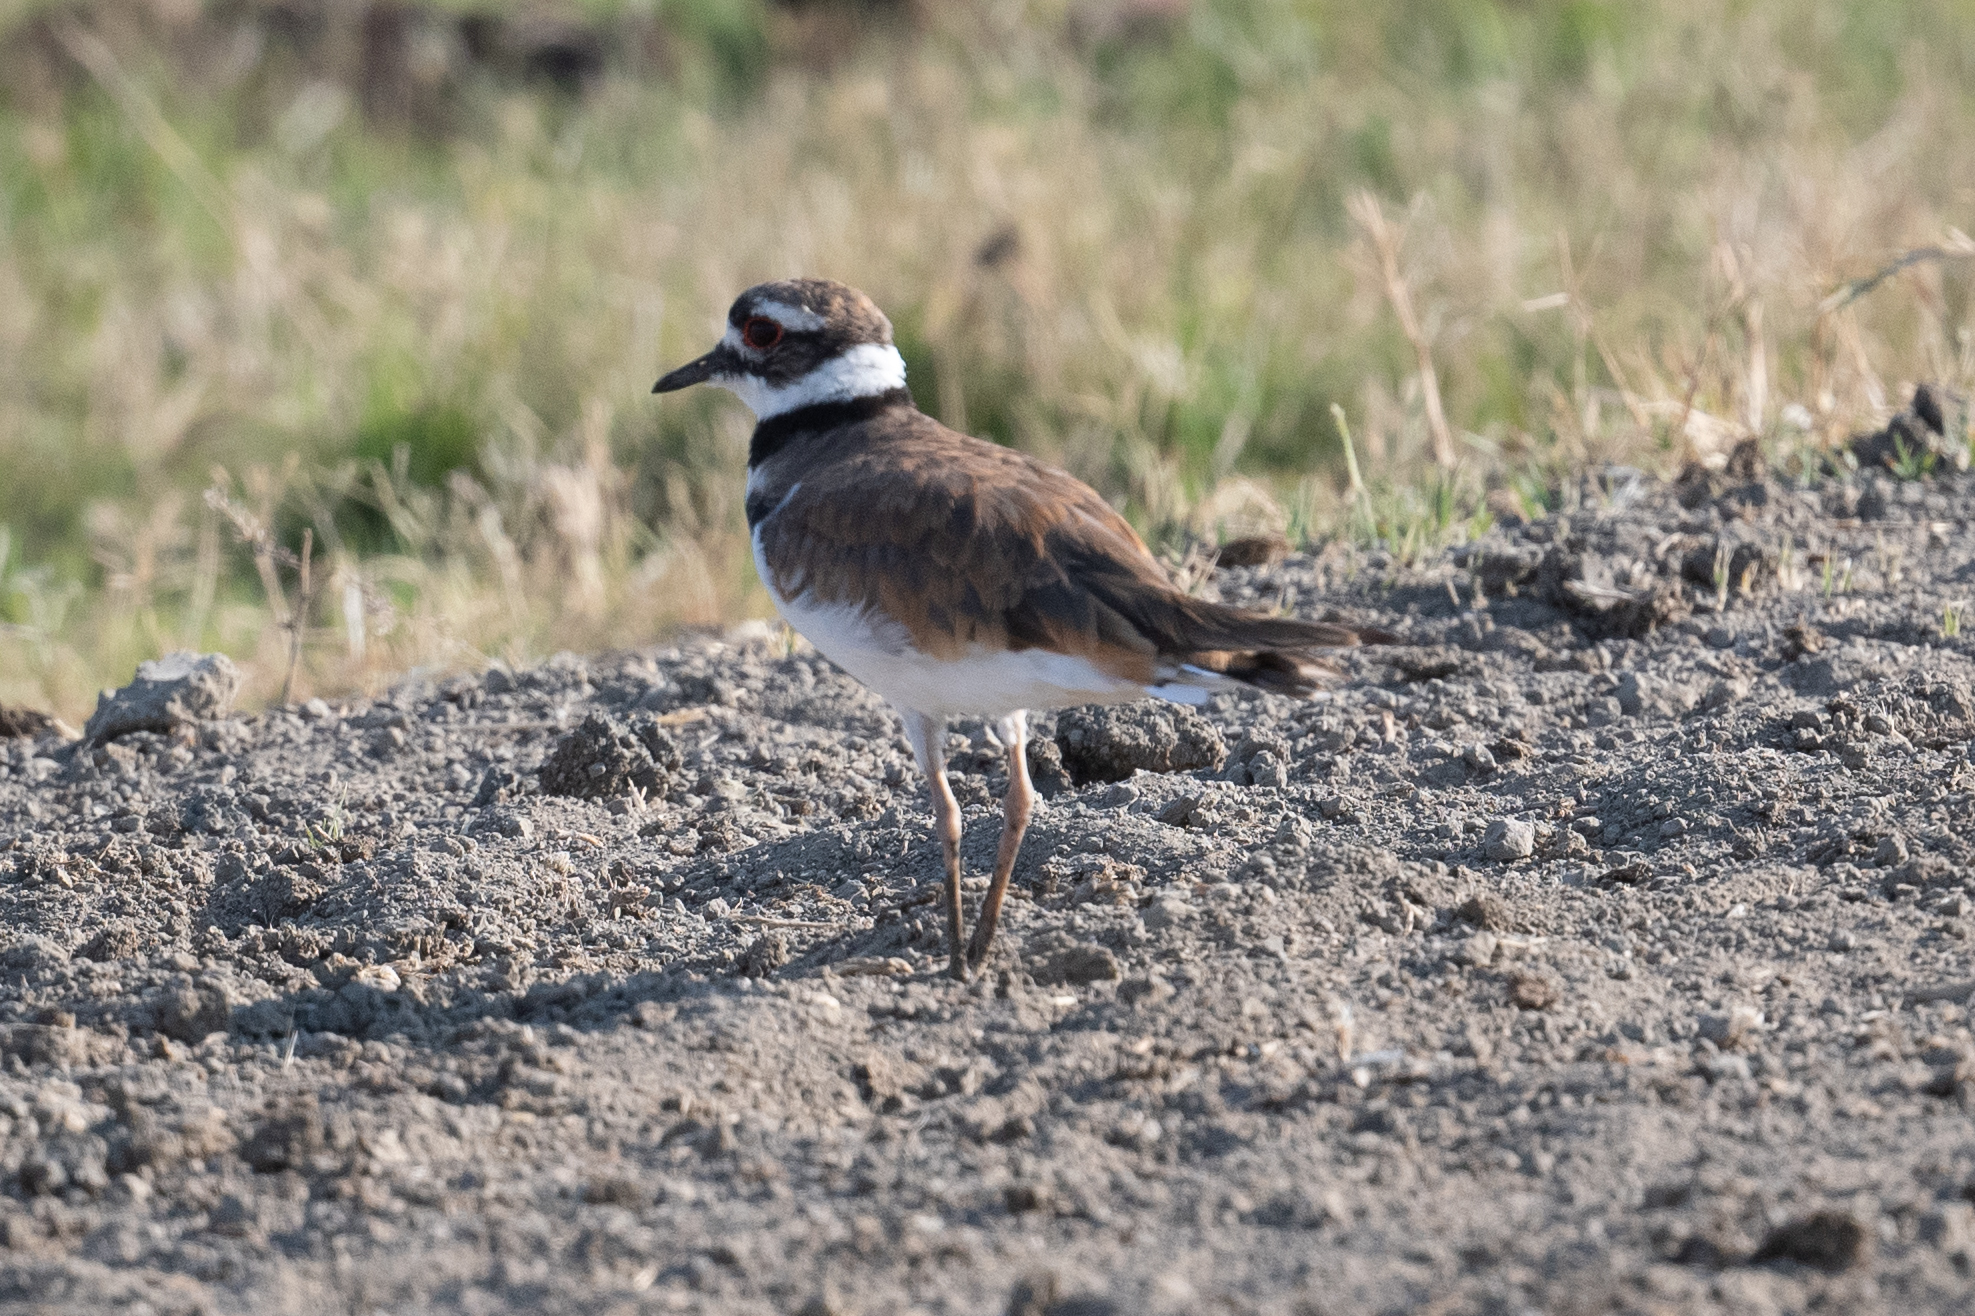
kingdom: Animalia
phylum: Chordata
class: Aves
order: Charadriiformes
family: Charadriidae
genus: Charadrius
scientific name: Charadrius vociferus
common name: Killdeer
